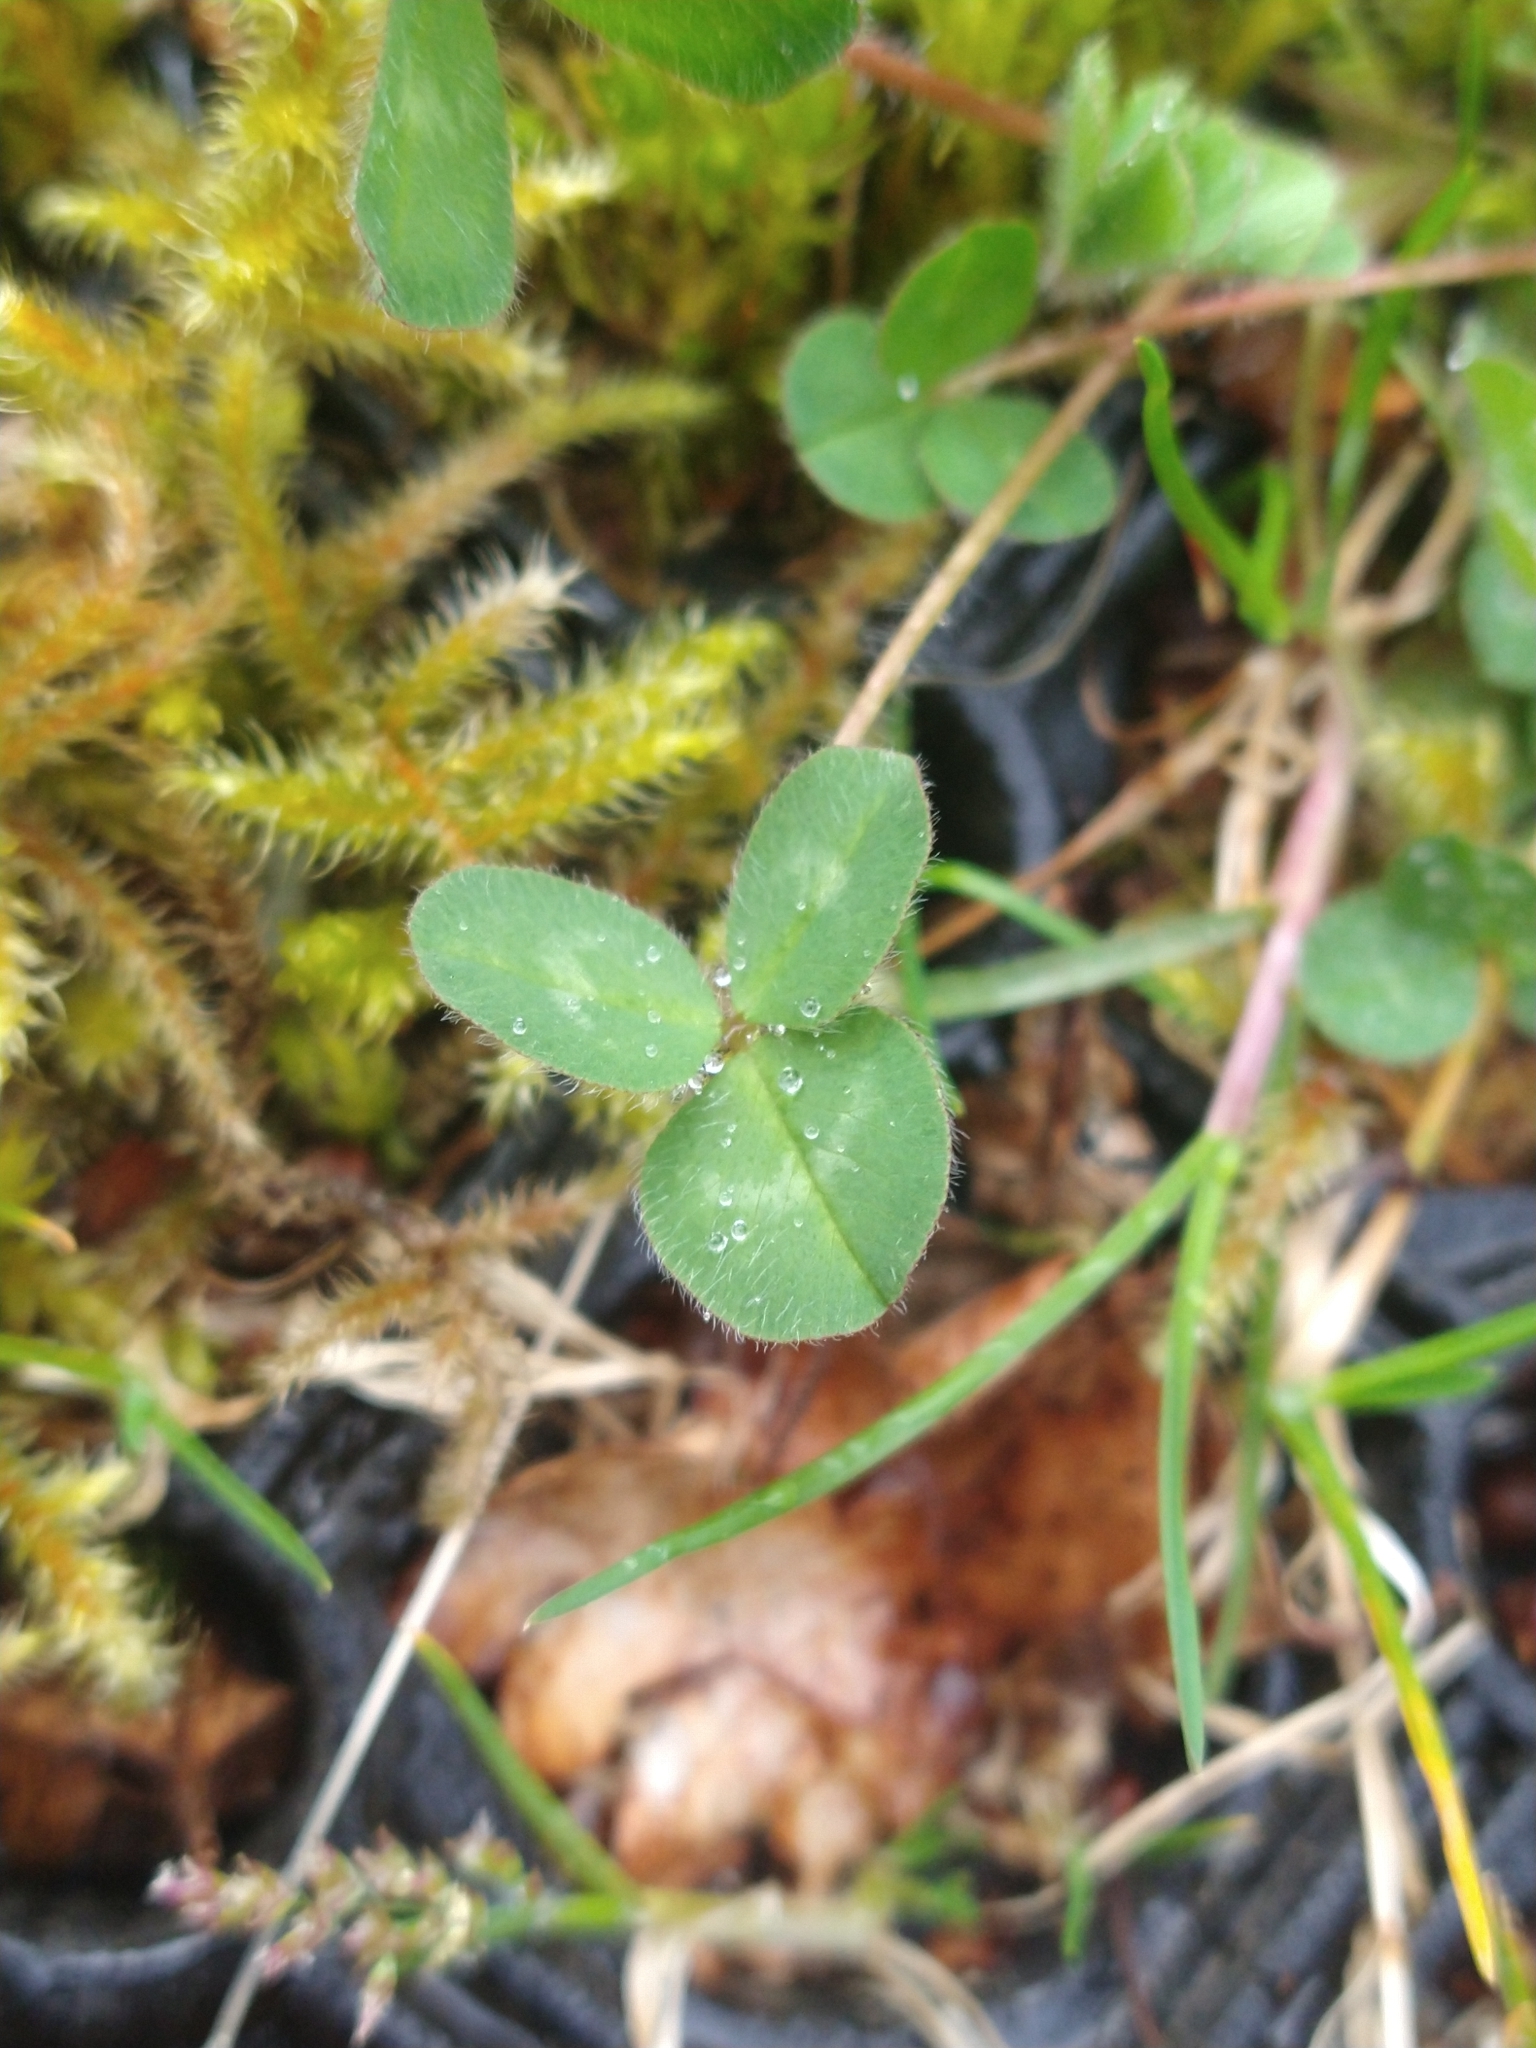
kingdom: Plantae
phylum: Tracheophyta
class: Magnoliopsida
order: Fabales
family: Fabaceae
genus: Trifolium
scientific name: Trifolium pratense
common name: Red clover
